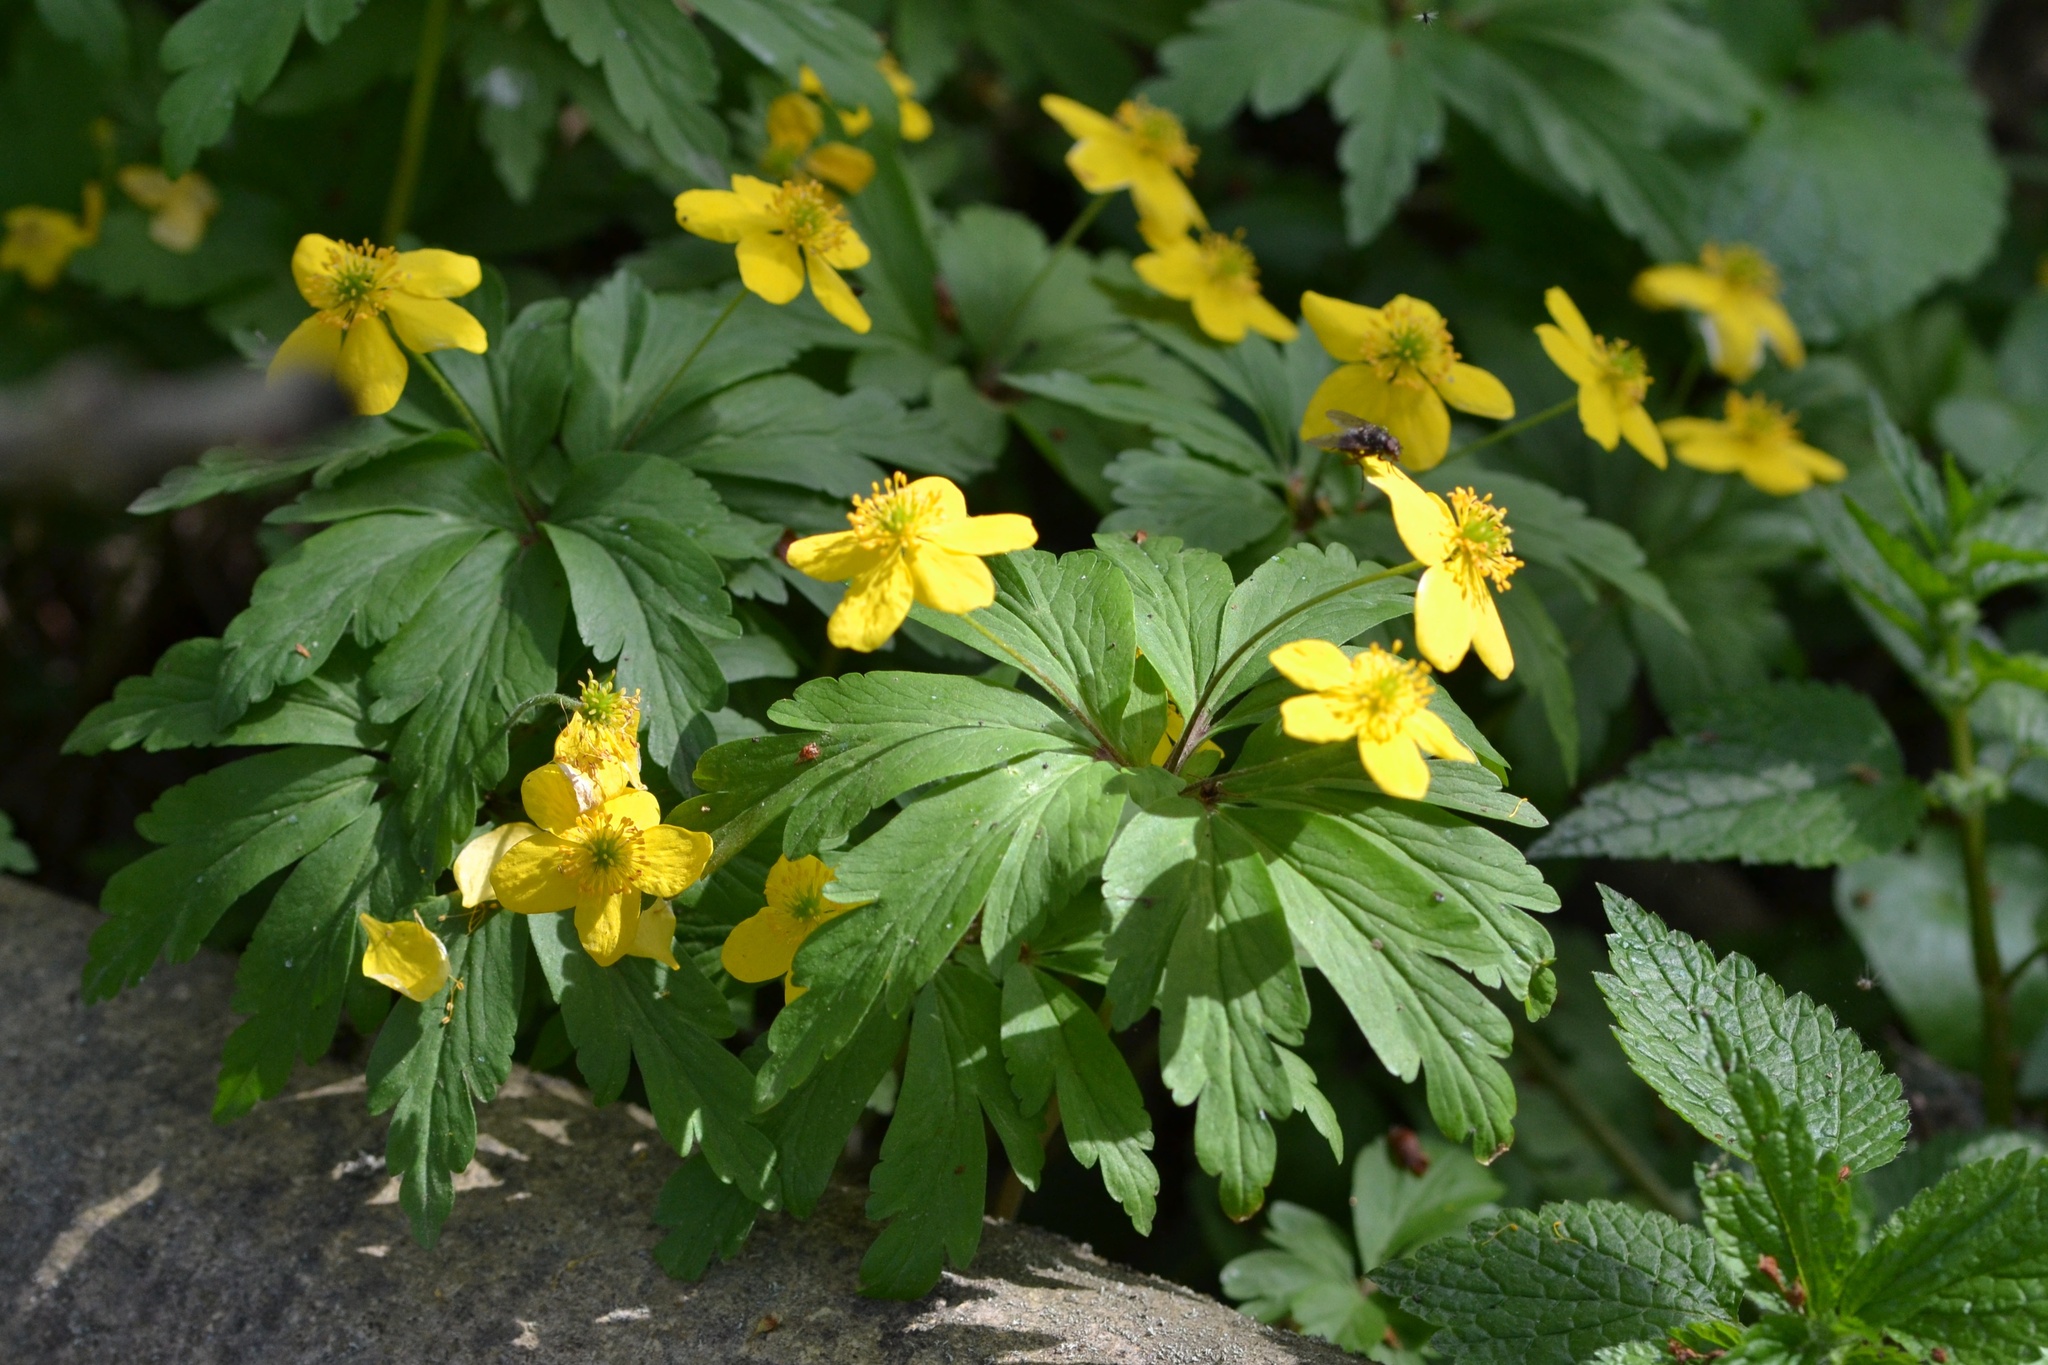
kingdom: Plantae
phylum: Tracheophyta
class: Magnoliopsida
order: Ranunculales
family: Ranunculaceae
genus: Anemone
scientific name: Anemone ranunculoides
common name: Yellow anemone
